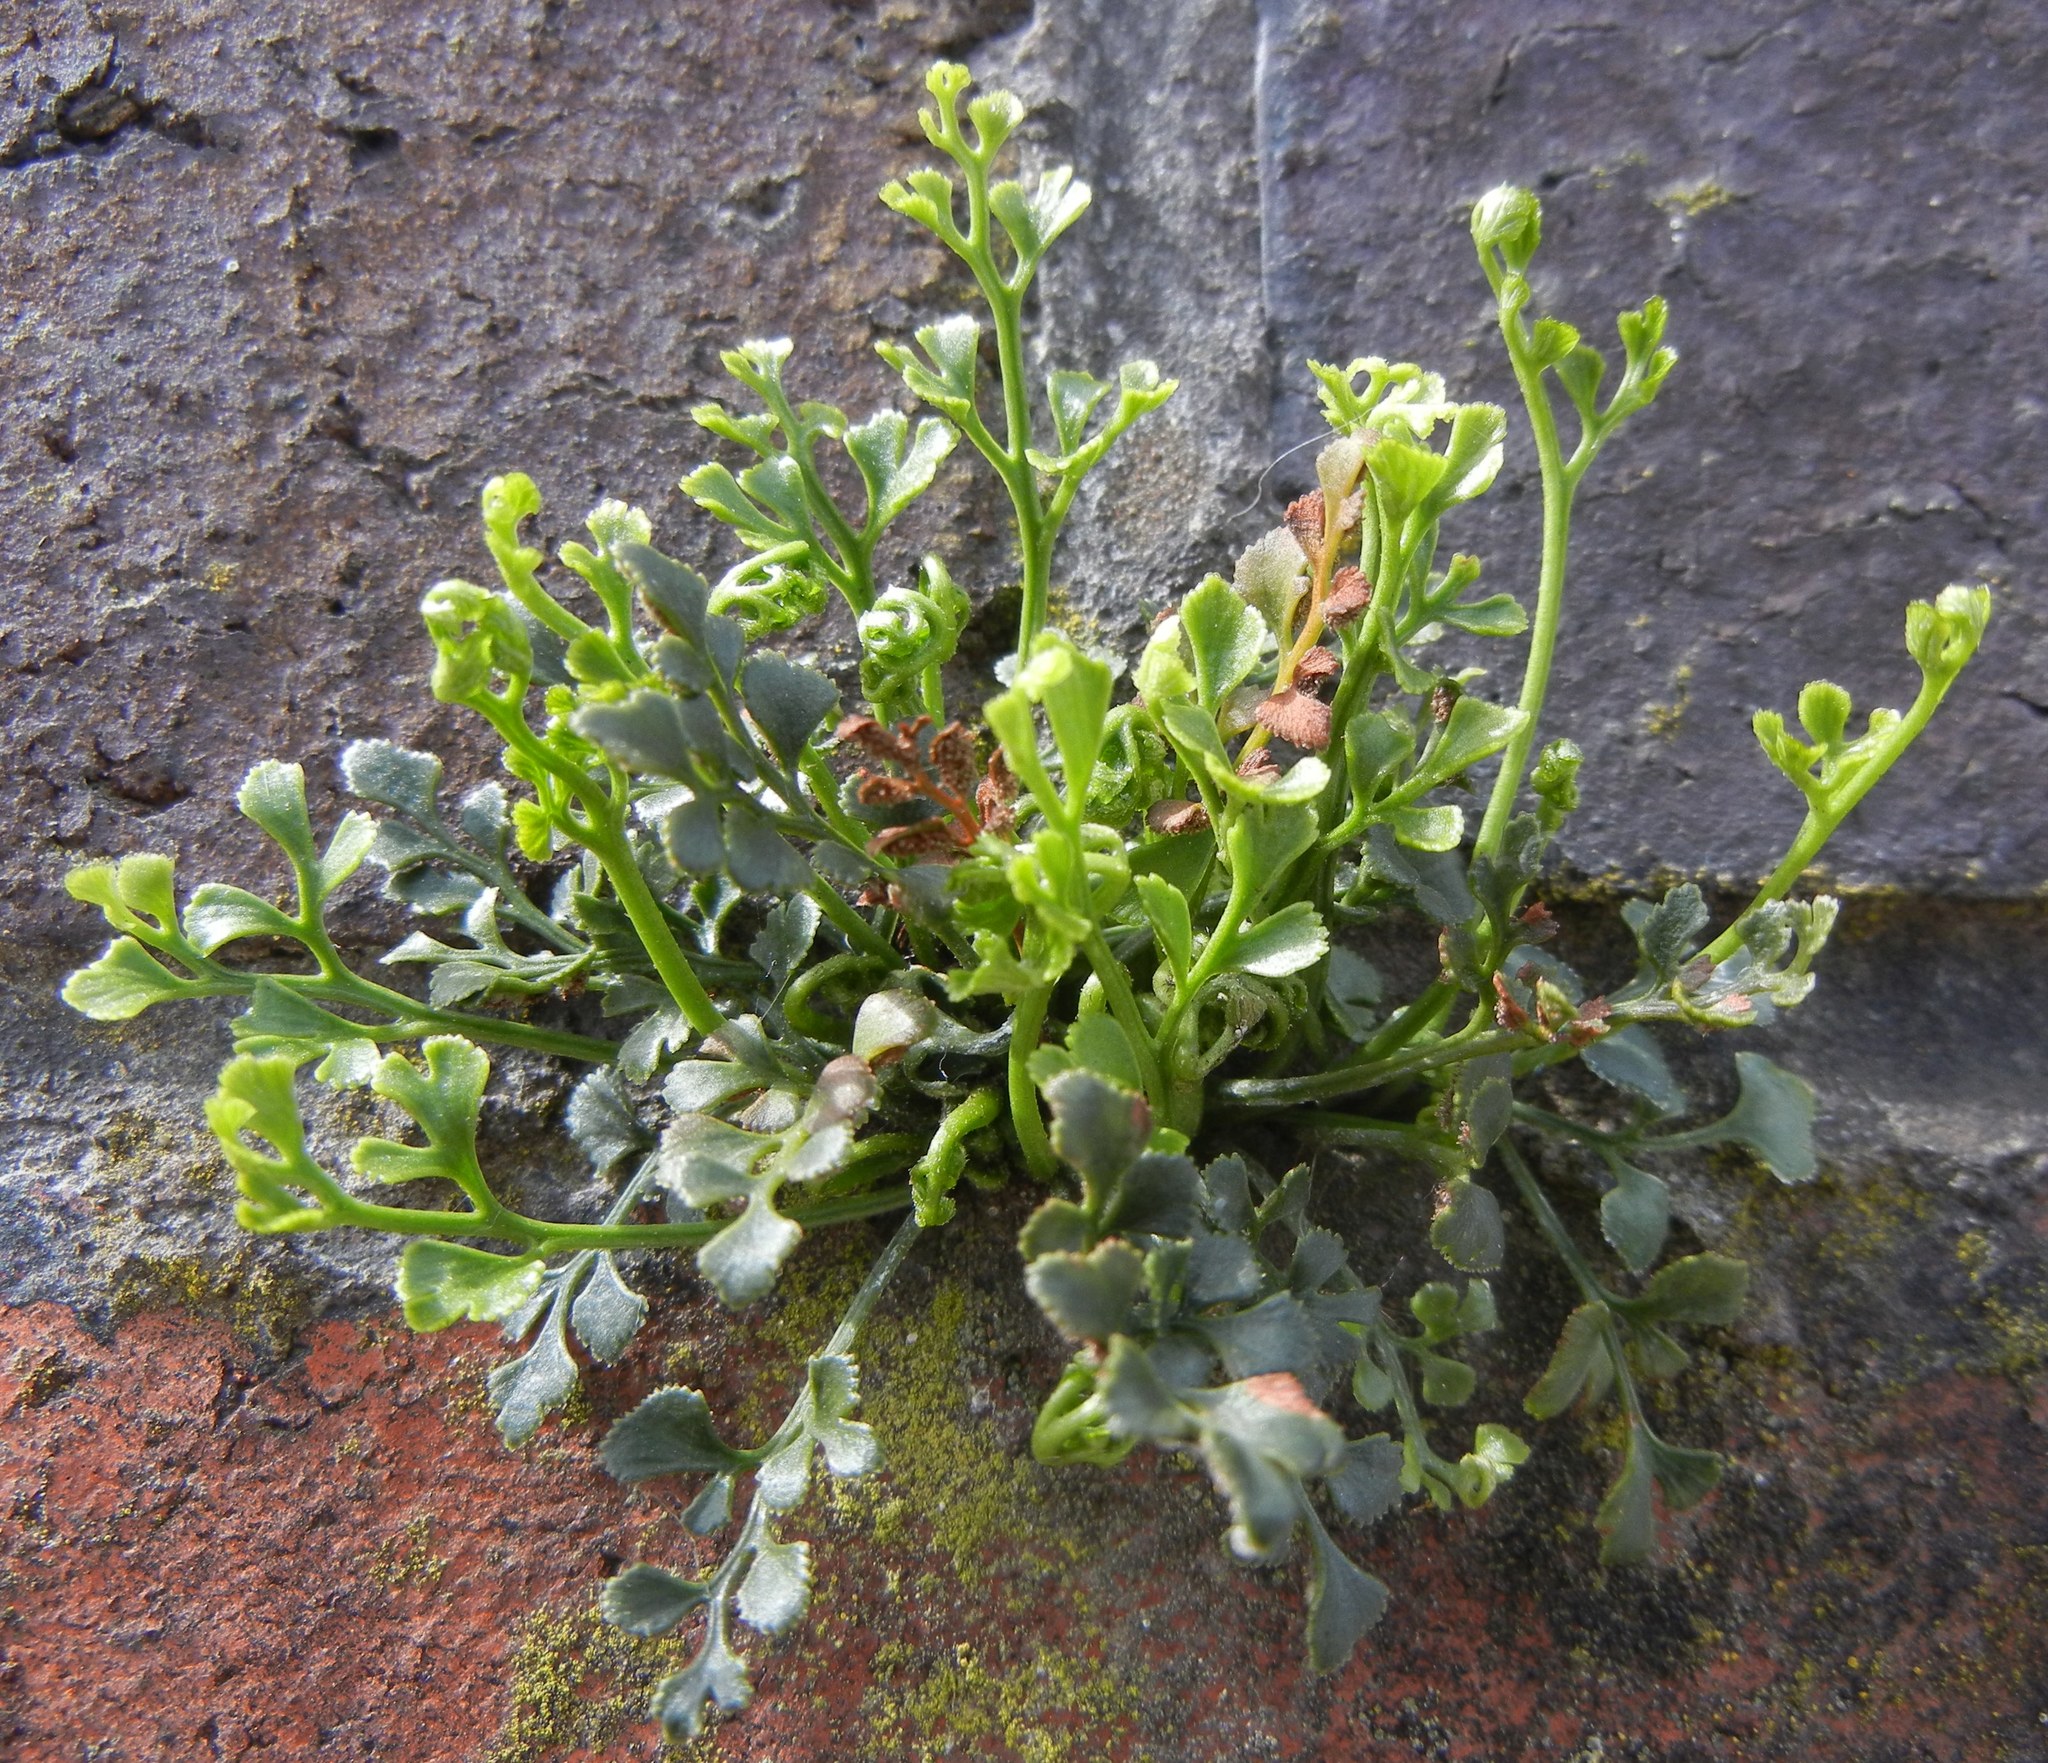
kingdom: Plantae
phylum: Tracheophyta
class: Polypodiopsida
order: Polypodiales
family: Aspleniaceae
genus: Asplenium
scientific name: Asplenium ruta-muraria
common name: Wall-rue
